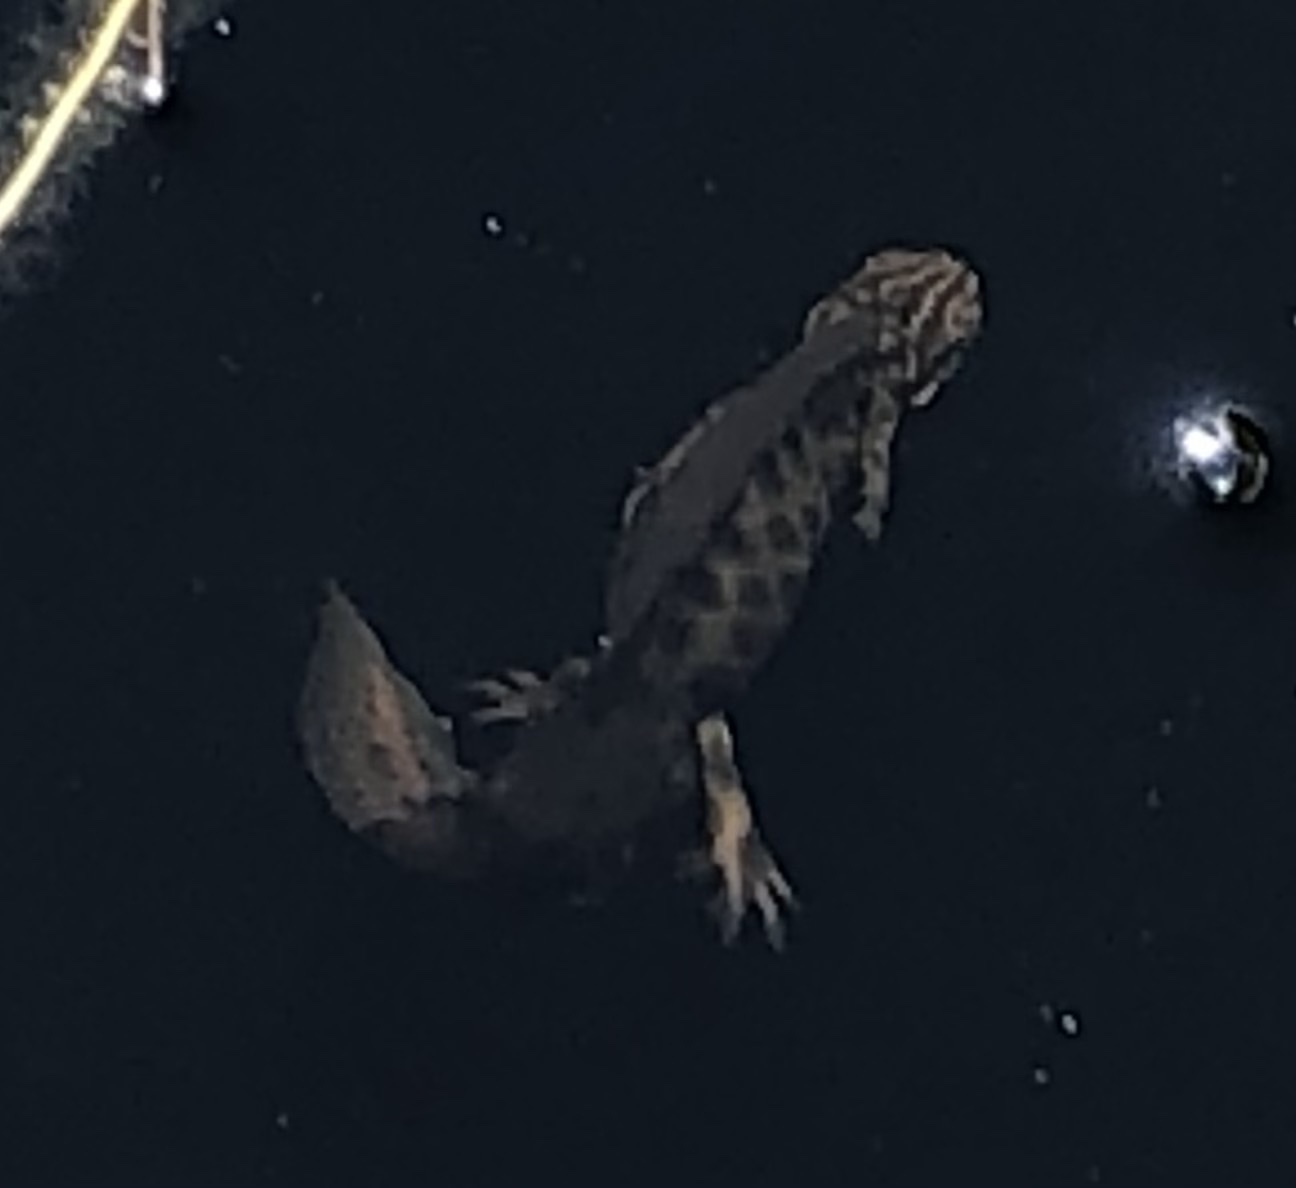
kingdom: Animalia
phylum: Chordata
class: Amphibia
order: Caudata
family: Salamandridae
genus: Lissotriton
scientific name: Lissotriton vulgaris
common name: Smooth newt
